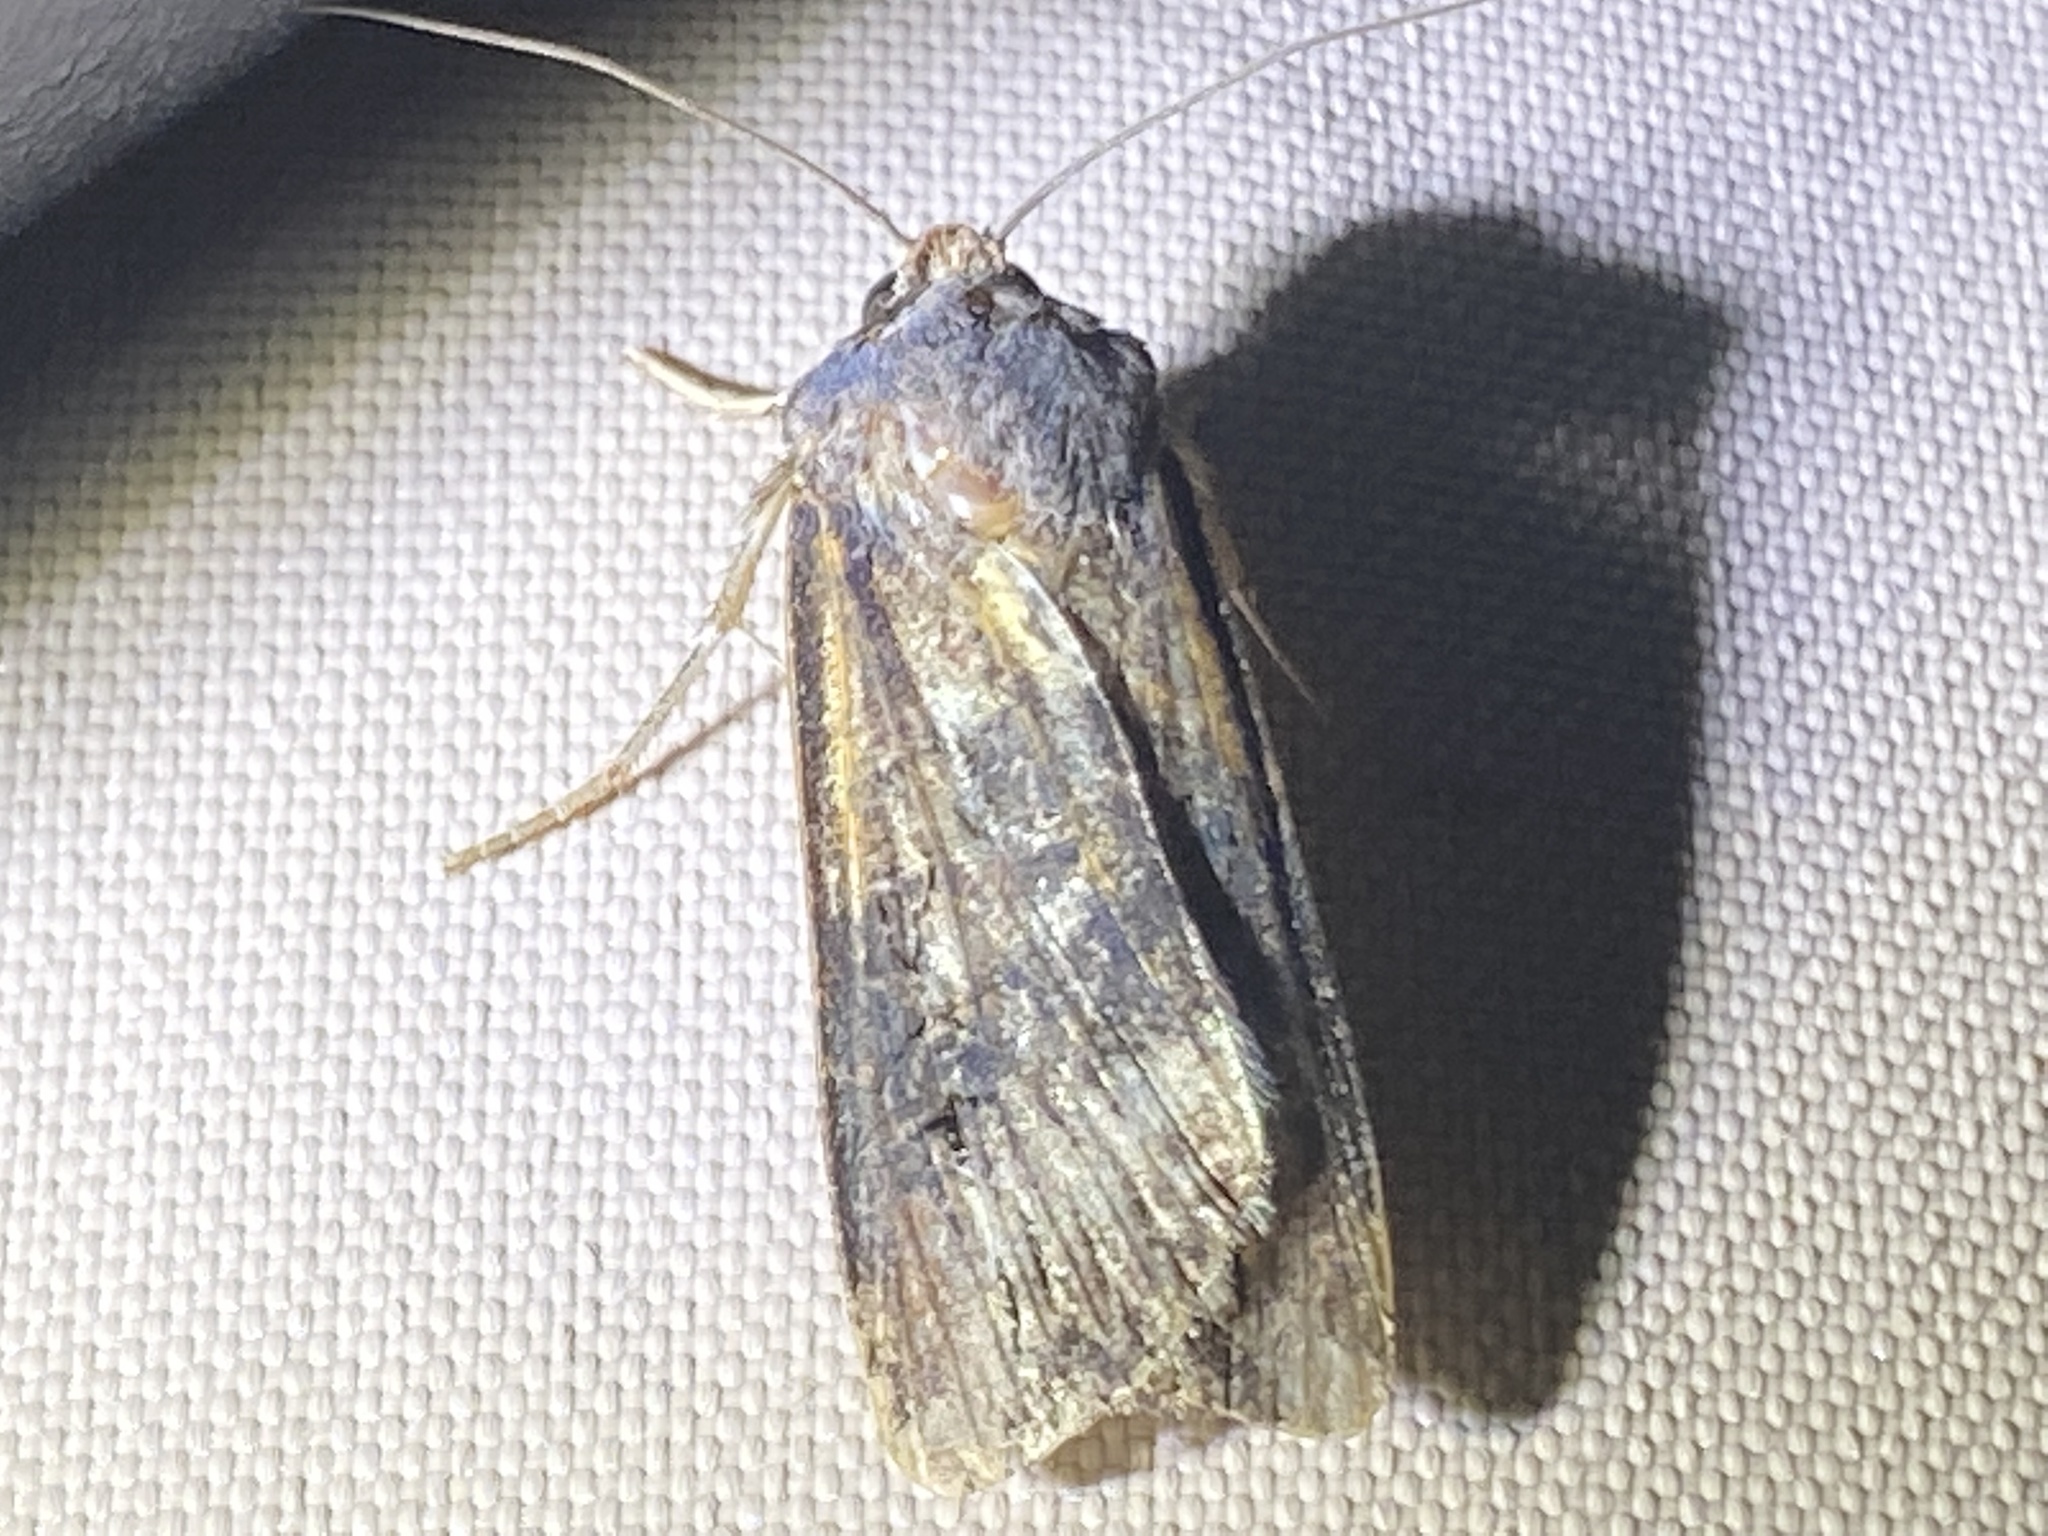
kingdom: Animalia
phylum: Arthropoda
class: Insecta
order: Lepidoptera
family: Noctuidae
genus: Agrotis
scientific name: Agrotis ipsilon
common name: Dark sword-grass
